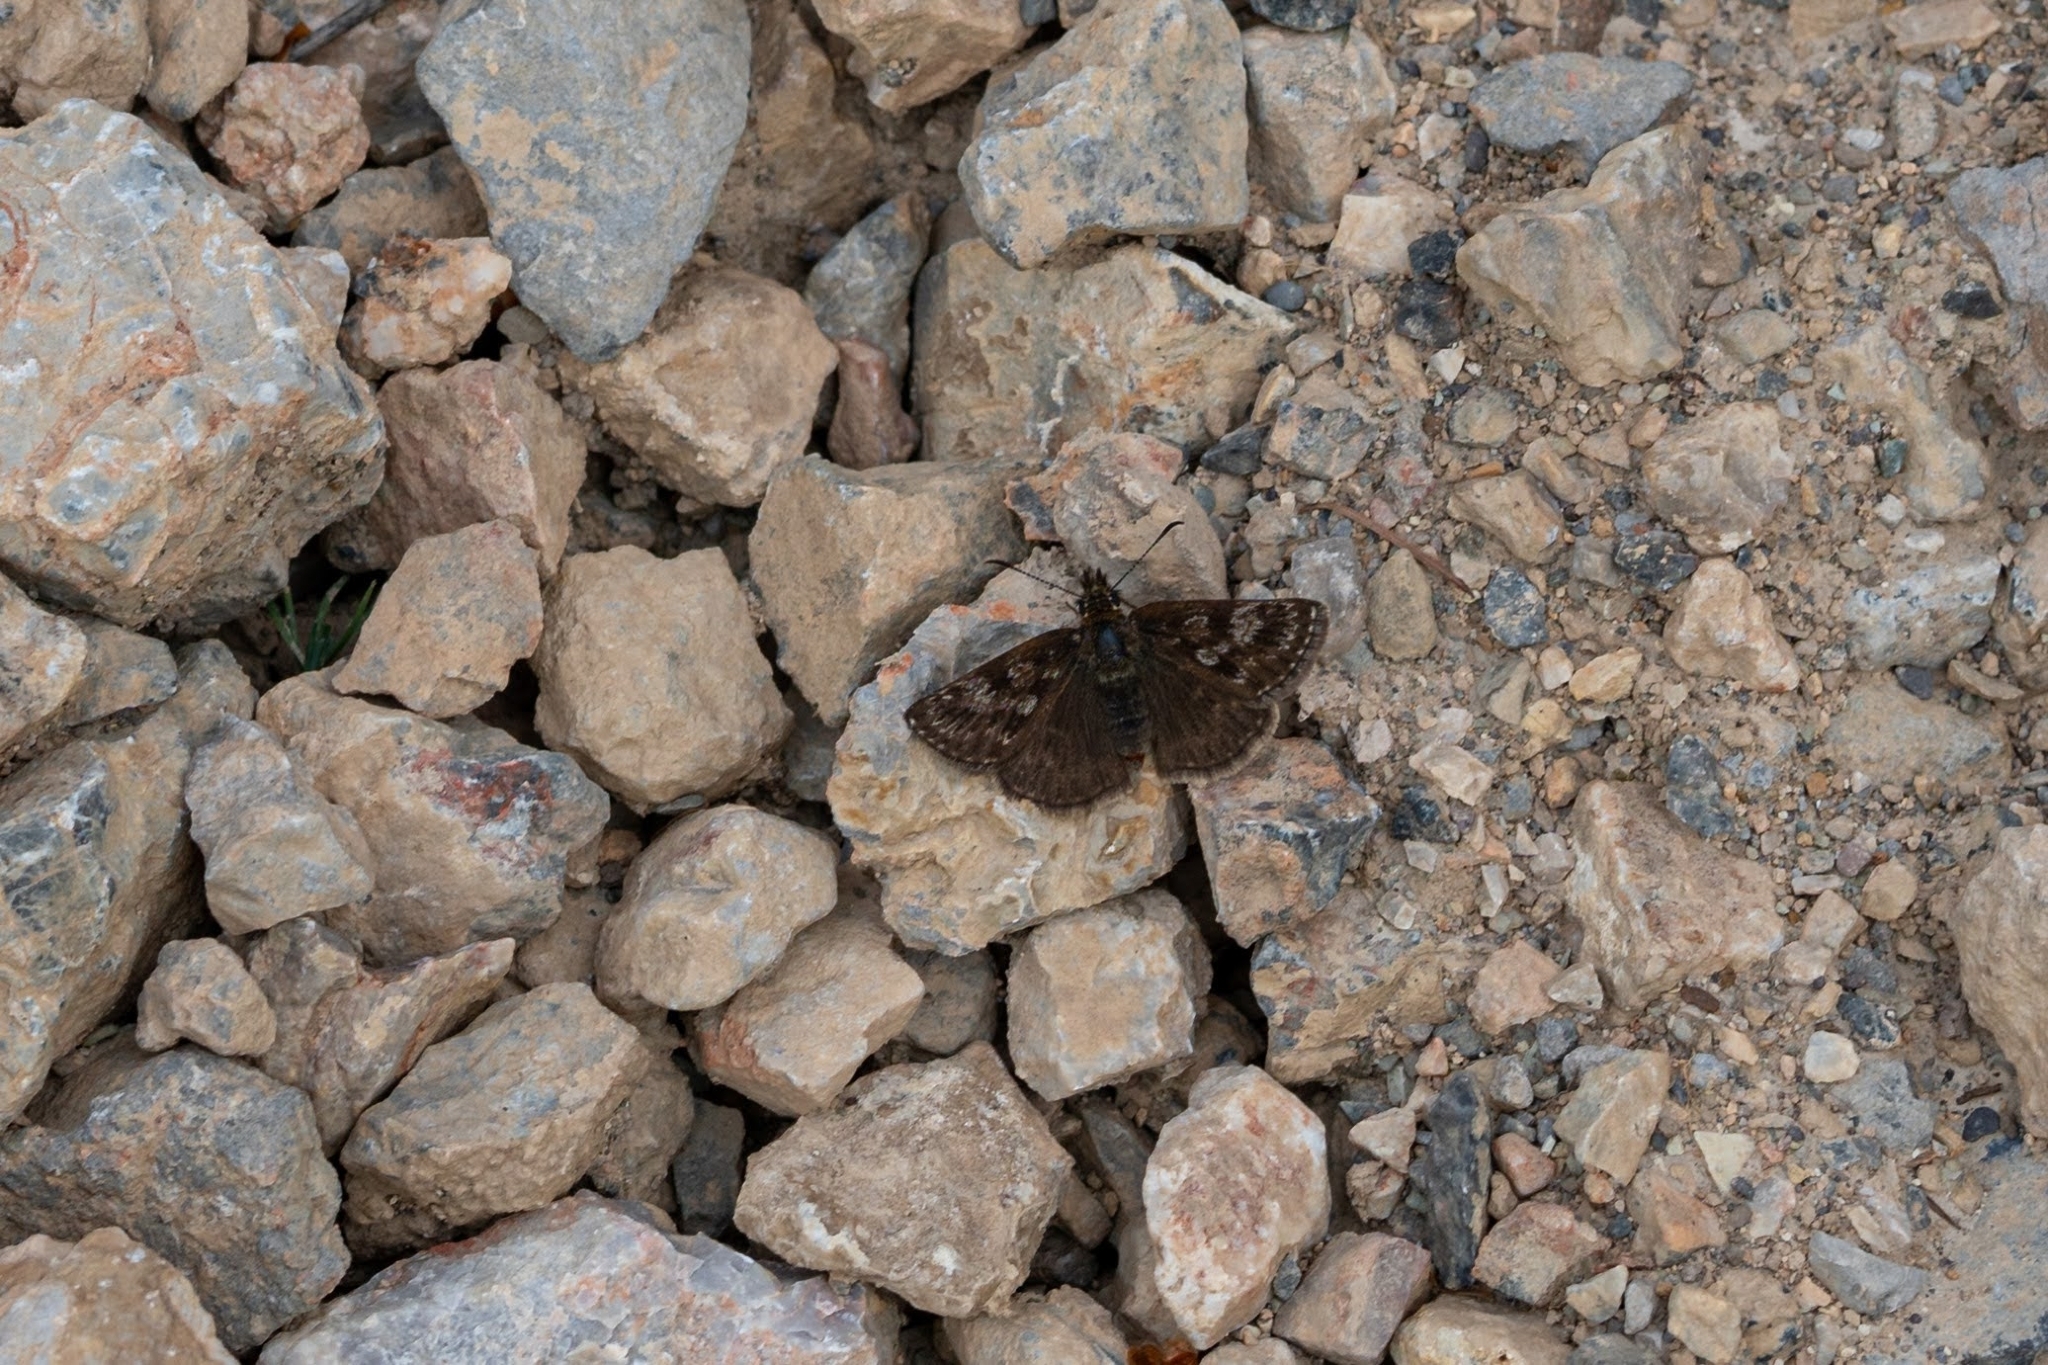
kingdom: Animalia
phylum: Arthropoda
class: Insecta
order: Lepidoptera
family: Hesperiidae
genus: Erynnis
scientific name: Erynnis tages
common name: Dingy skipper
